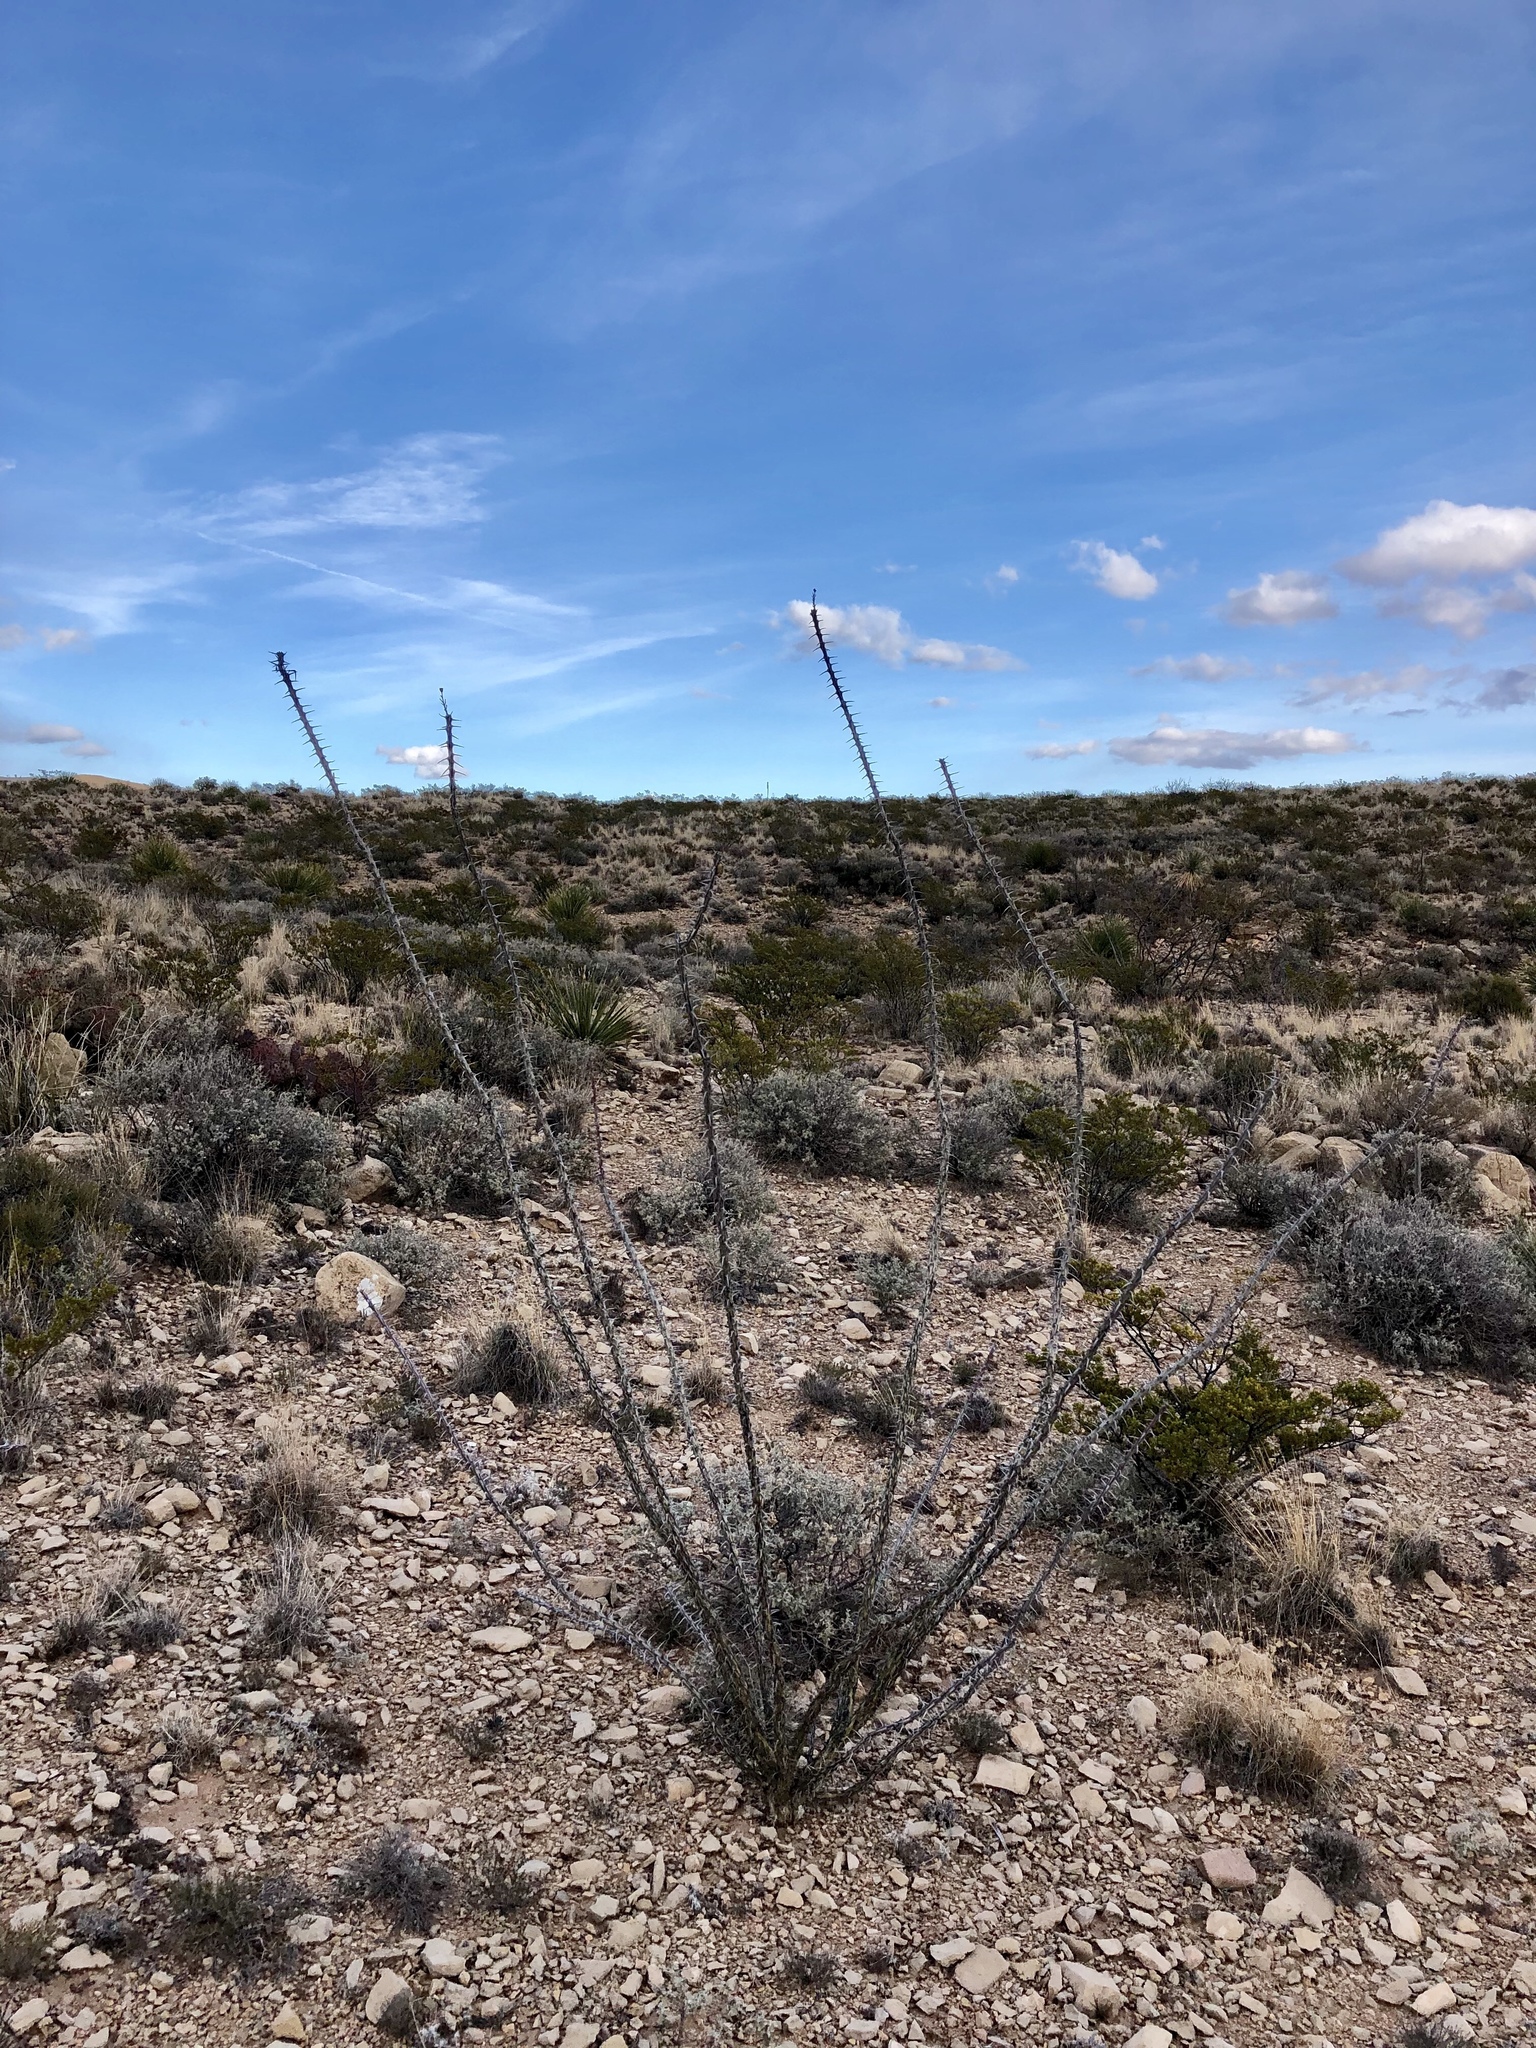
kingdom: Plantae
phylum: Tracheophyta
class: Magnoliopsida
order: Ericales
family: Fouquieriaceae
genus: Fouquieria
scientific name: Fouquieria splendens
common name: Vine-cactus
